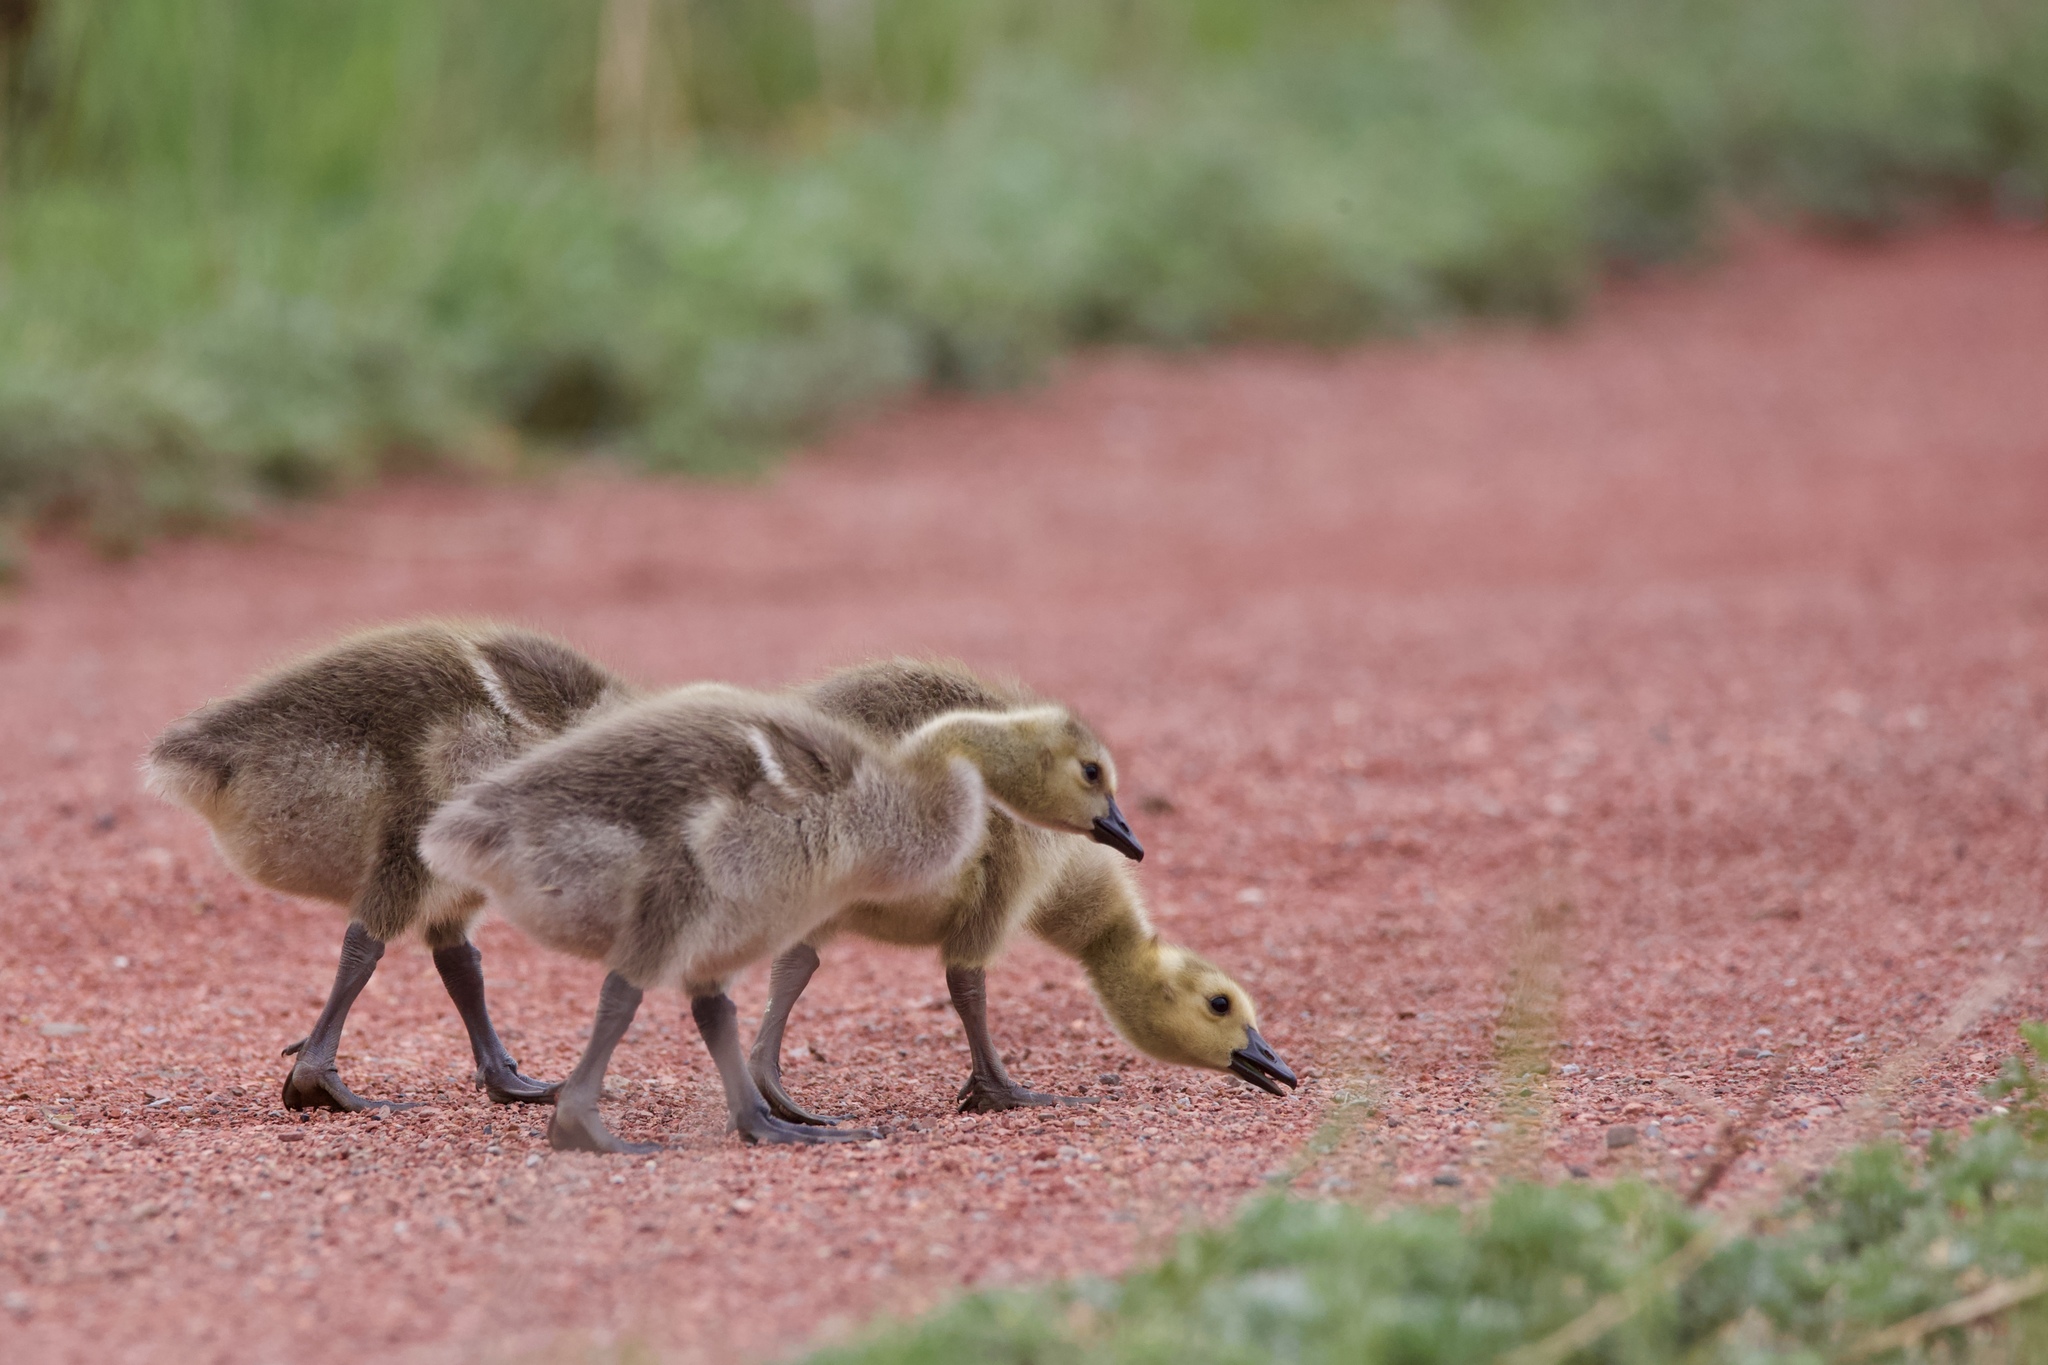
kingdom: Animalia
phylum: Chordata
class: Aves
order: Anseriformes
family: Anatidae
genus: Branta
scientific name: Branta canadensis
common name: Canada goose
